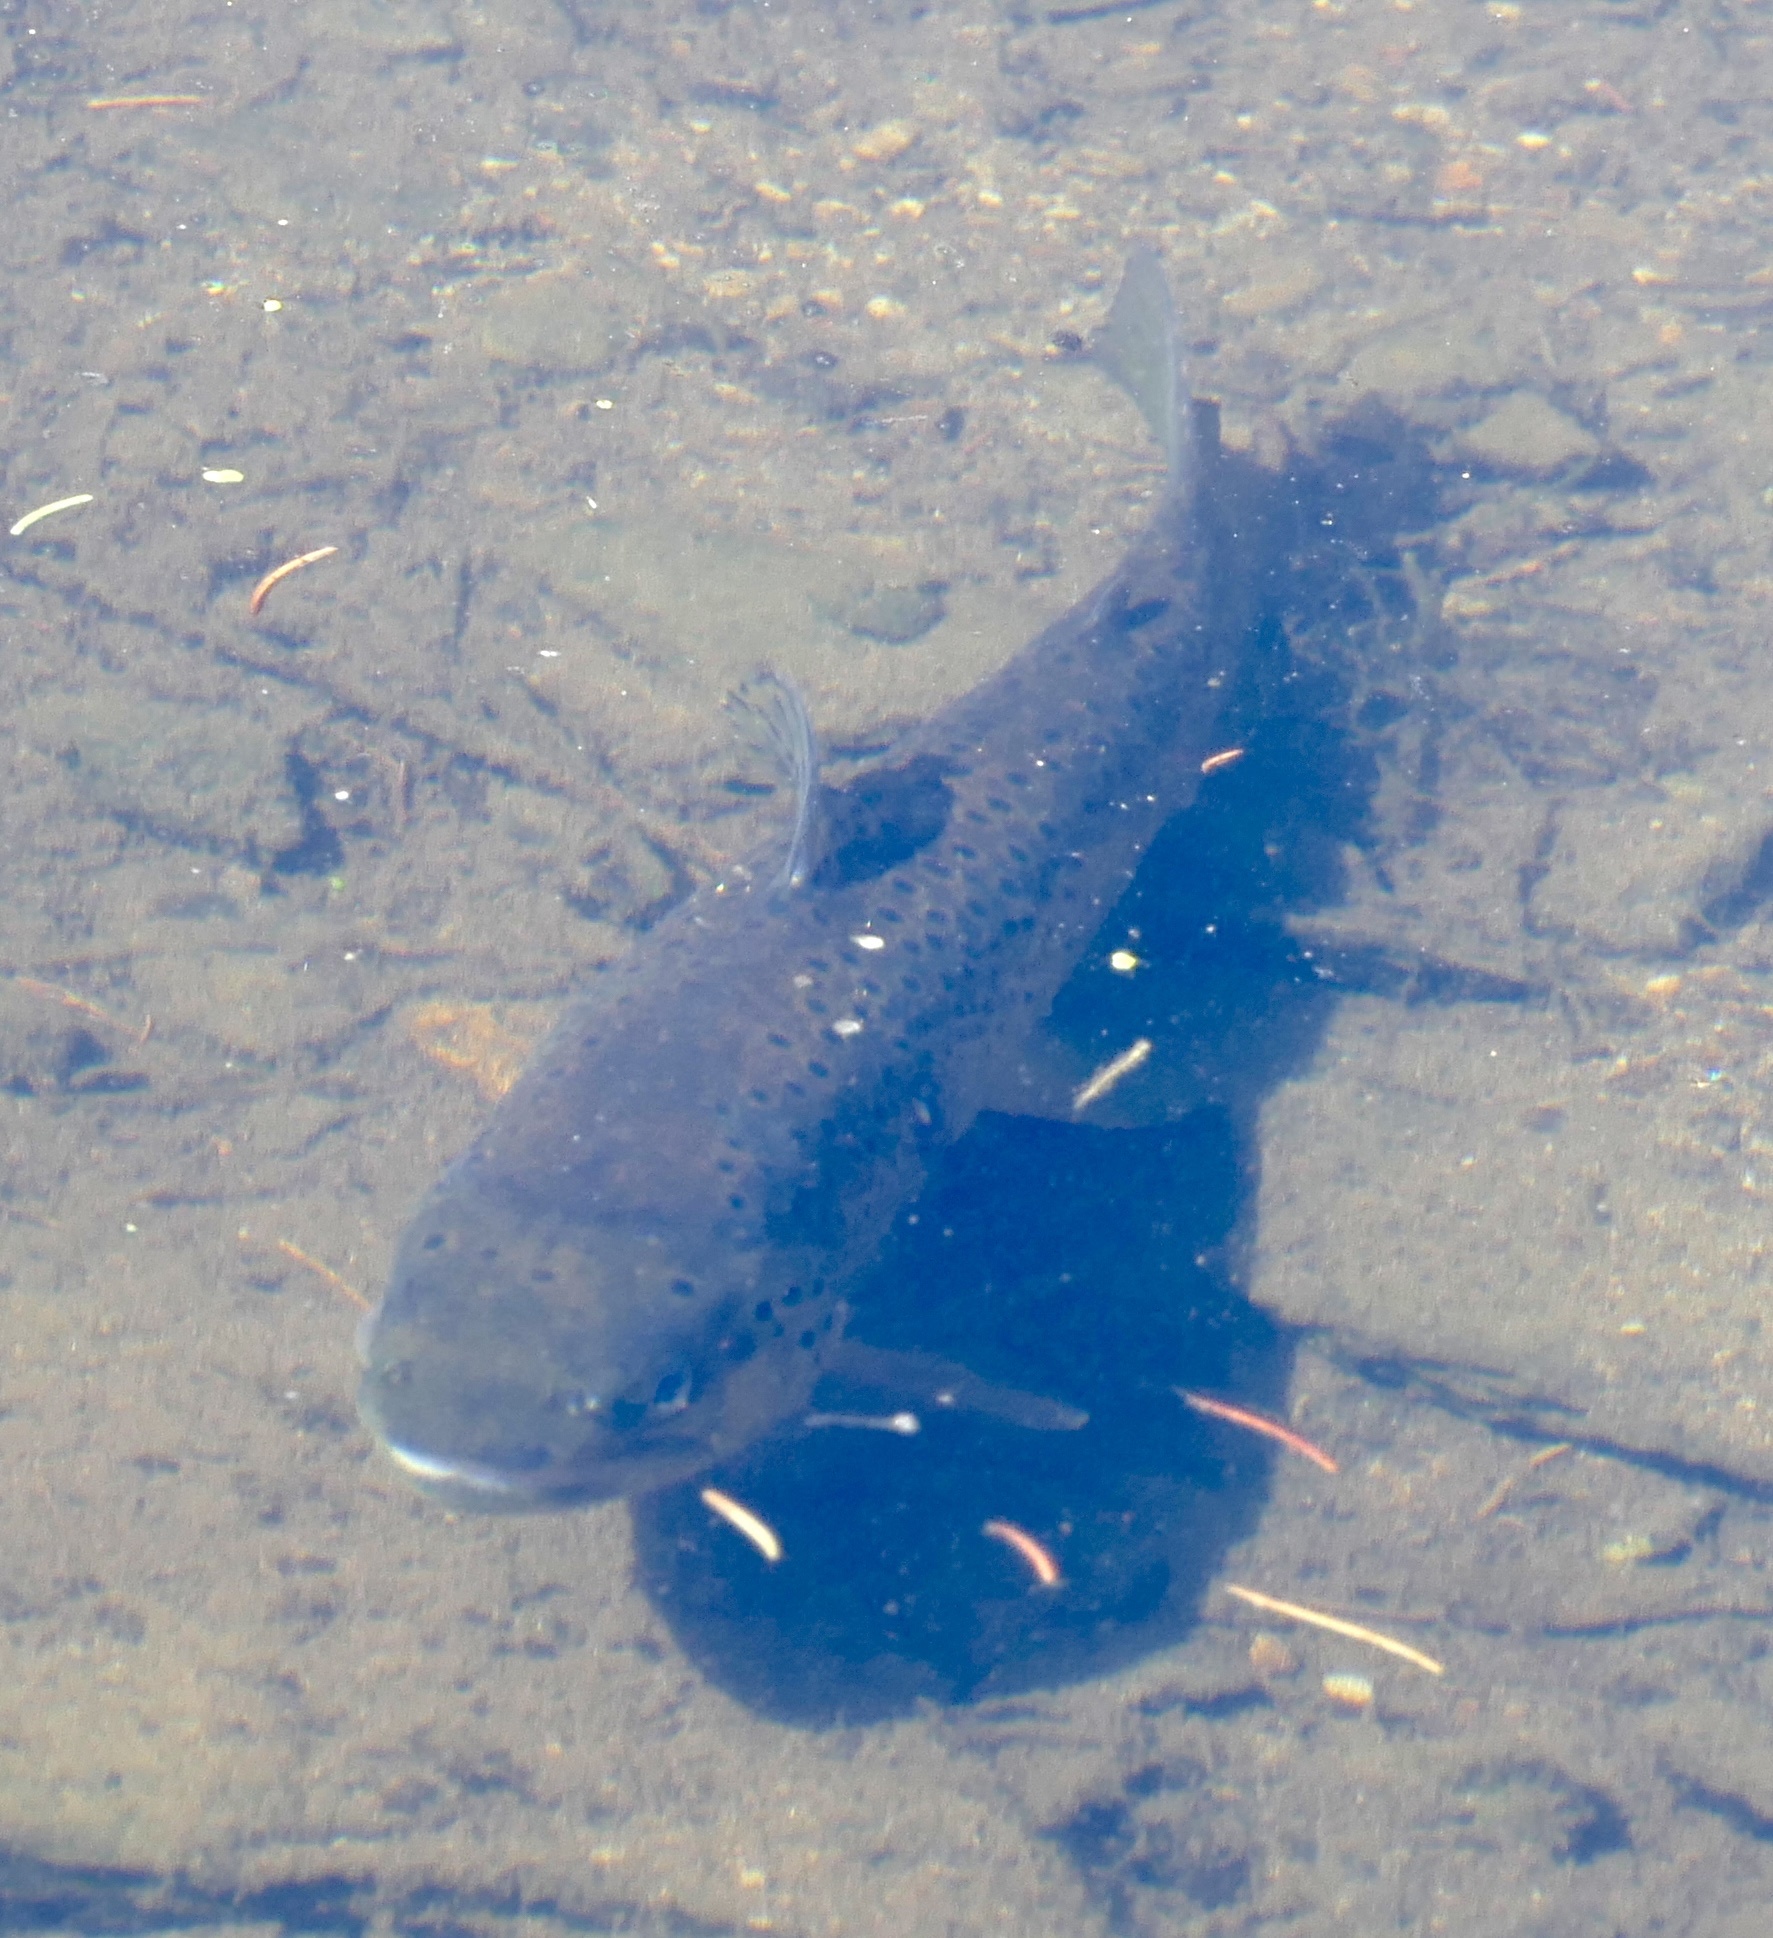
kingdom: Animalia
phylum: Chordata
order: Salmoniformes
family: Salmonidae
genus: Salmo
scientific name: Salmo trutta
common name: Brown trout
